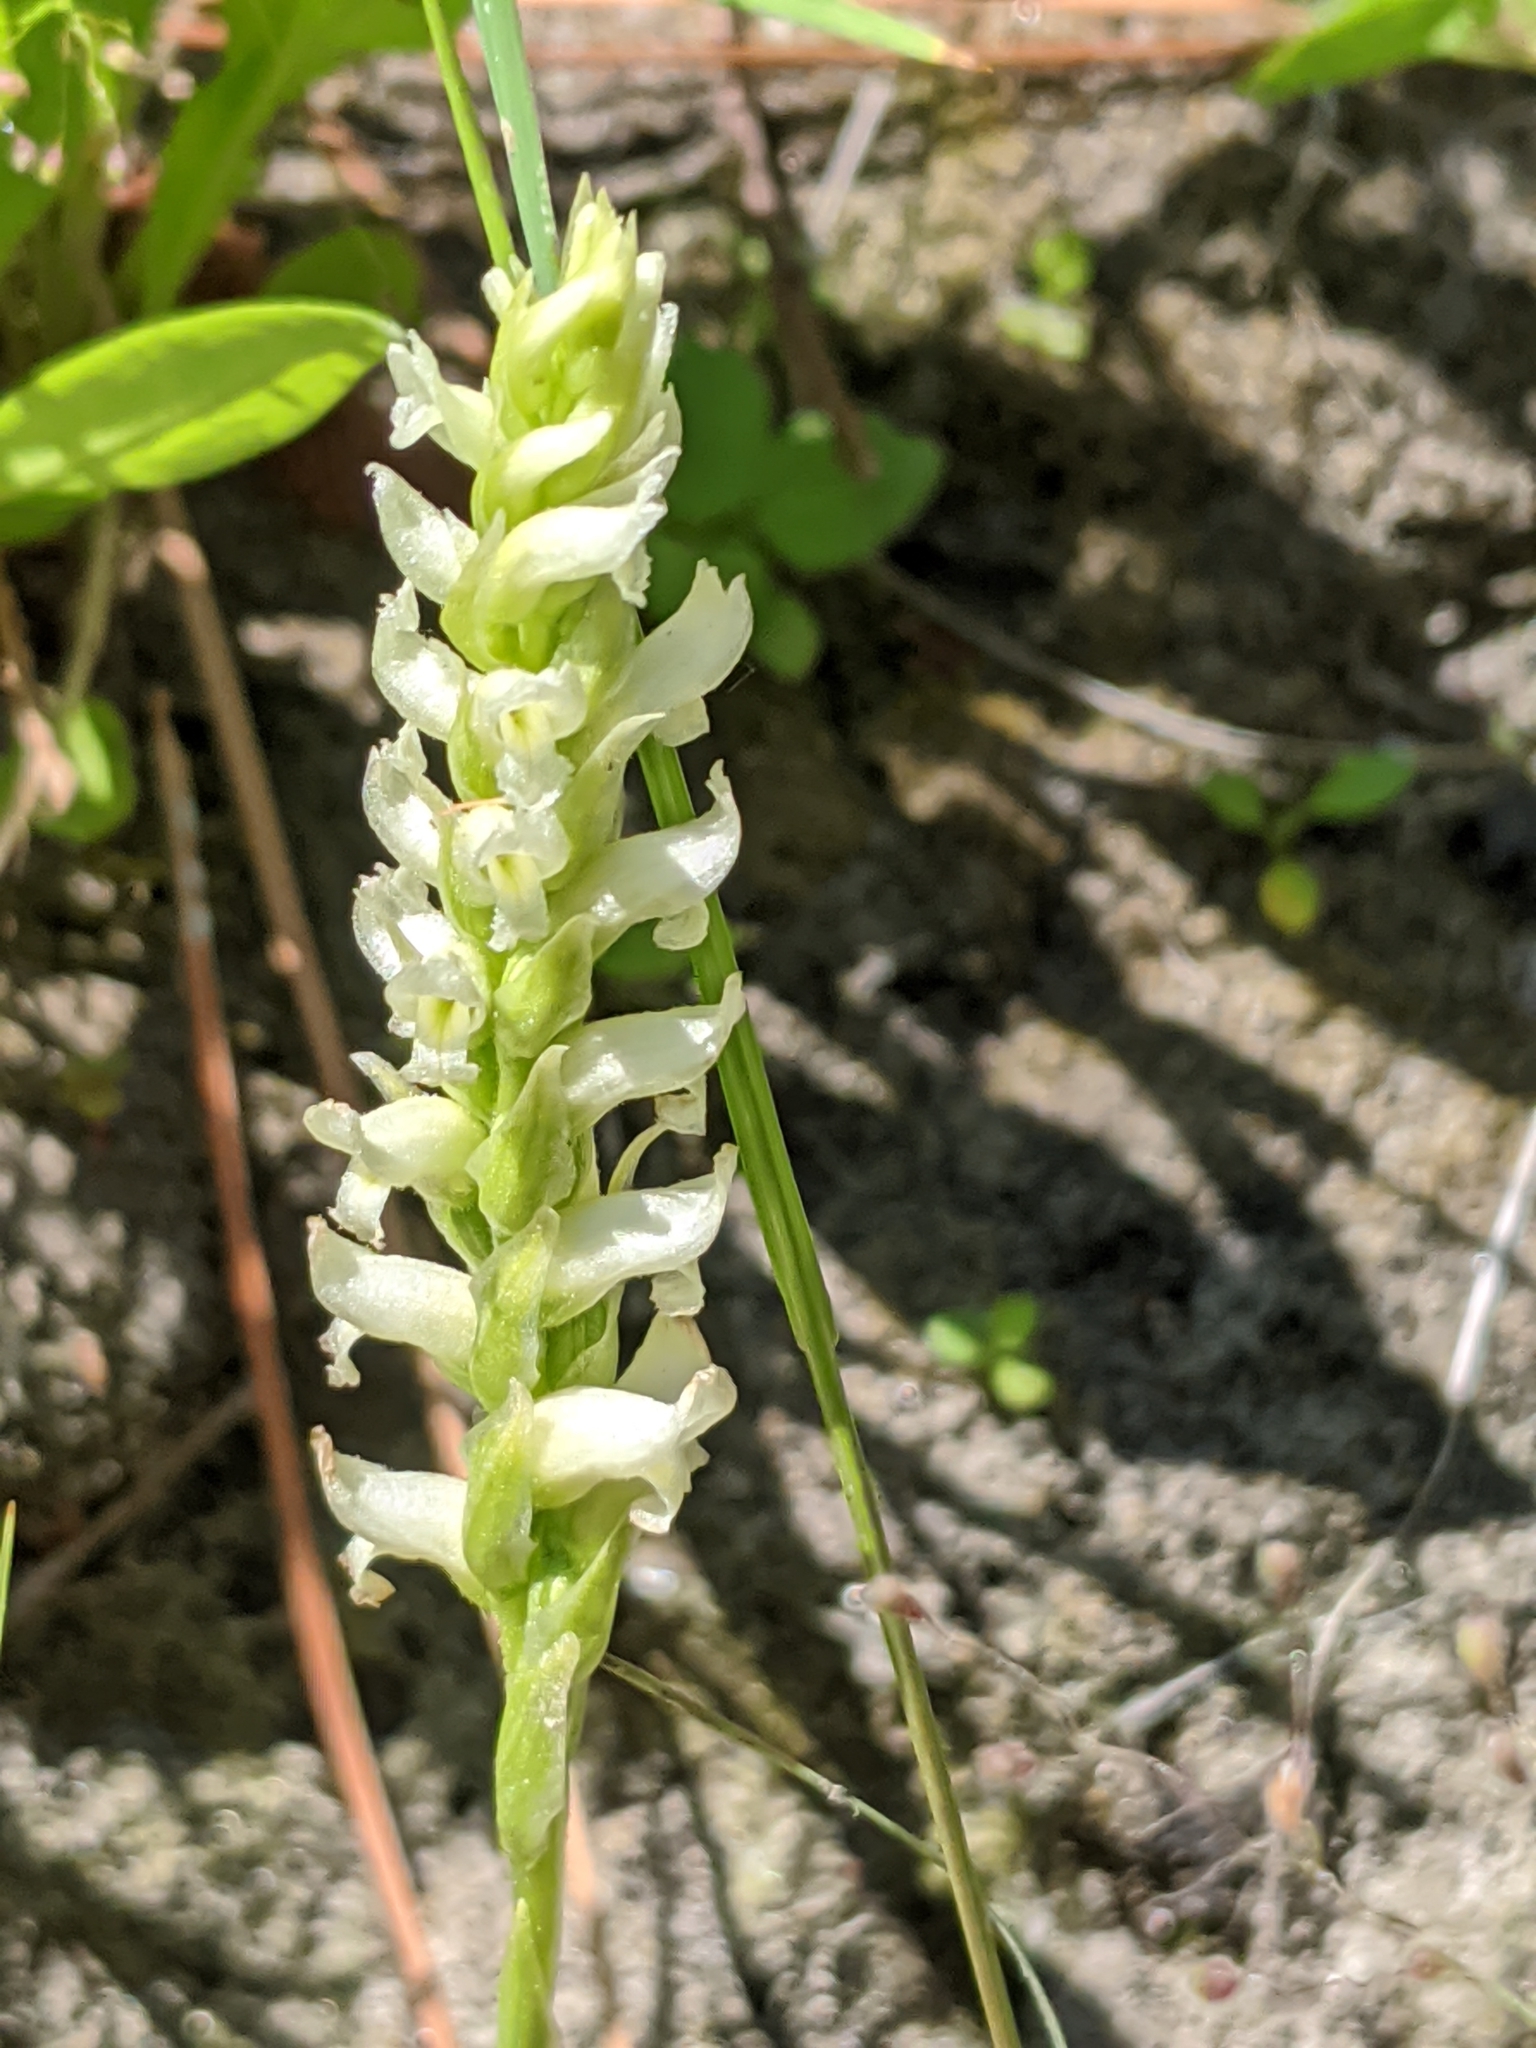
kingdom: Plantae
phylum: Tracheophyta
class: Liliopsida
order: Asparagales
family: Orchidaceae
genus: Spiranthes
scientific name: Spiranthes romanzoffiana
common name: Irish lady's-tresses
